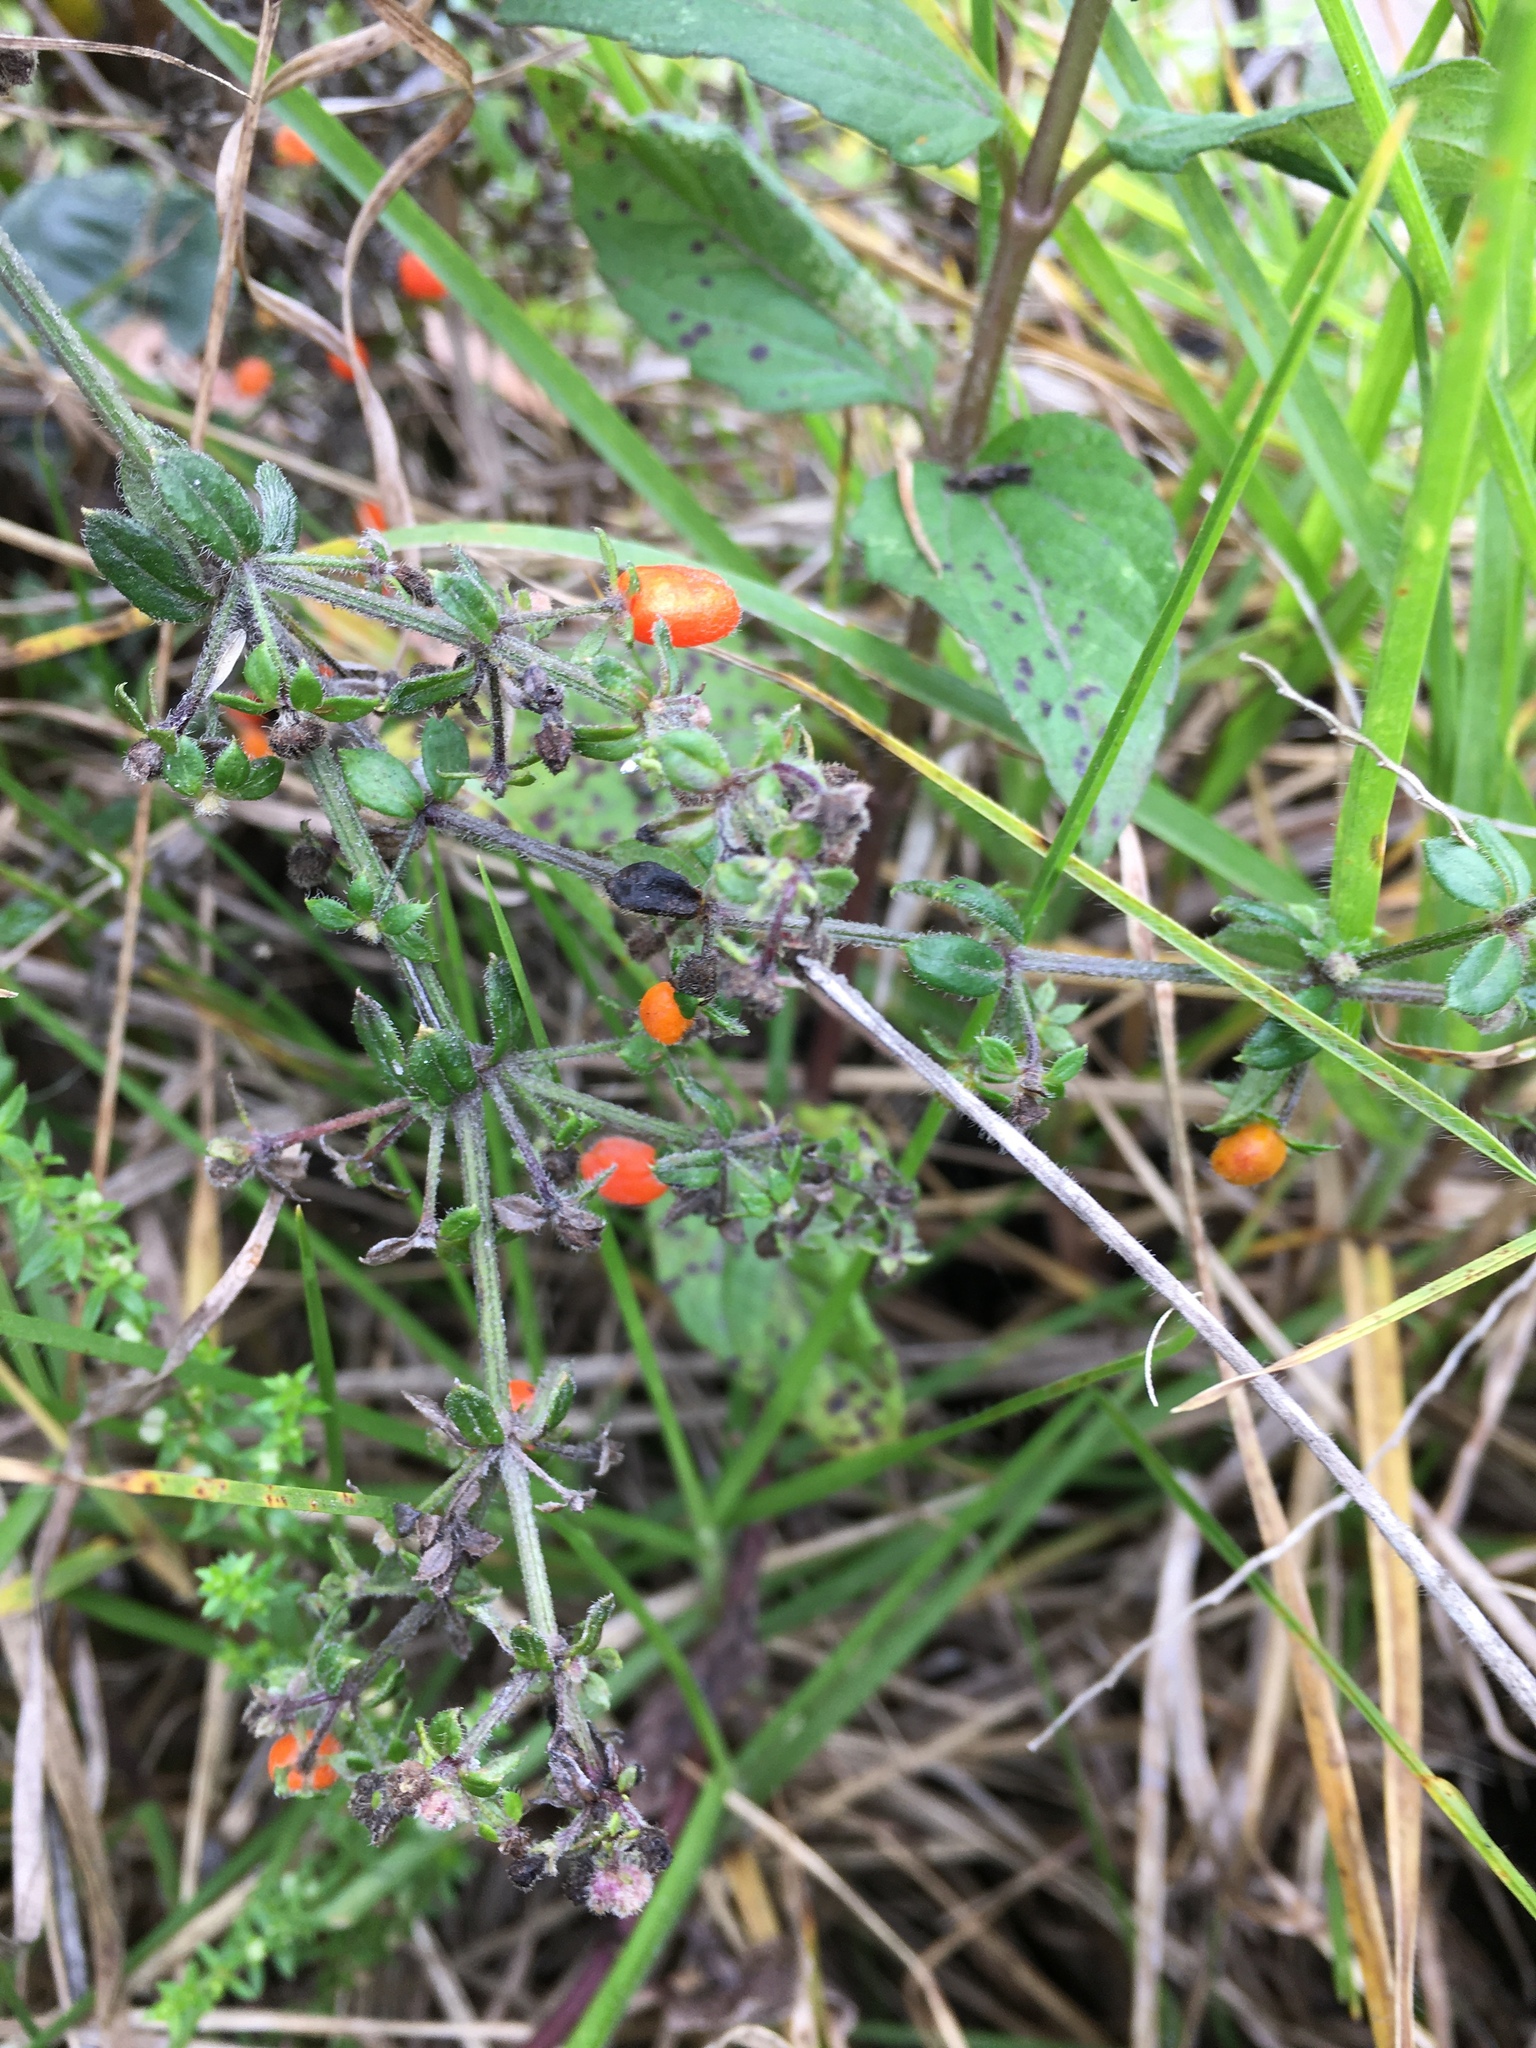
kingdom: Plantae
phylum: Tracheophyta
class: Magnoliopsida
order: Gentianales
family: Rubiaceae
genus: Galium
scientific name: Galium hypocarpium
